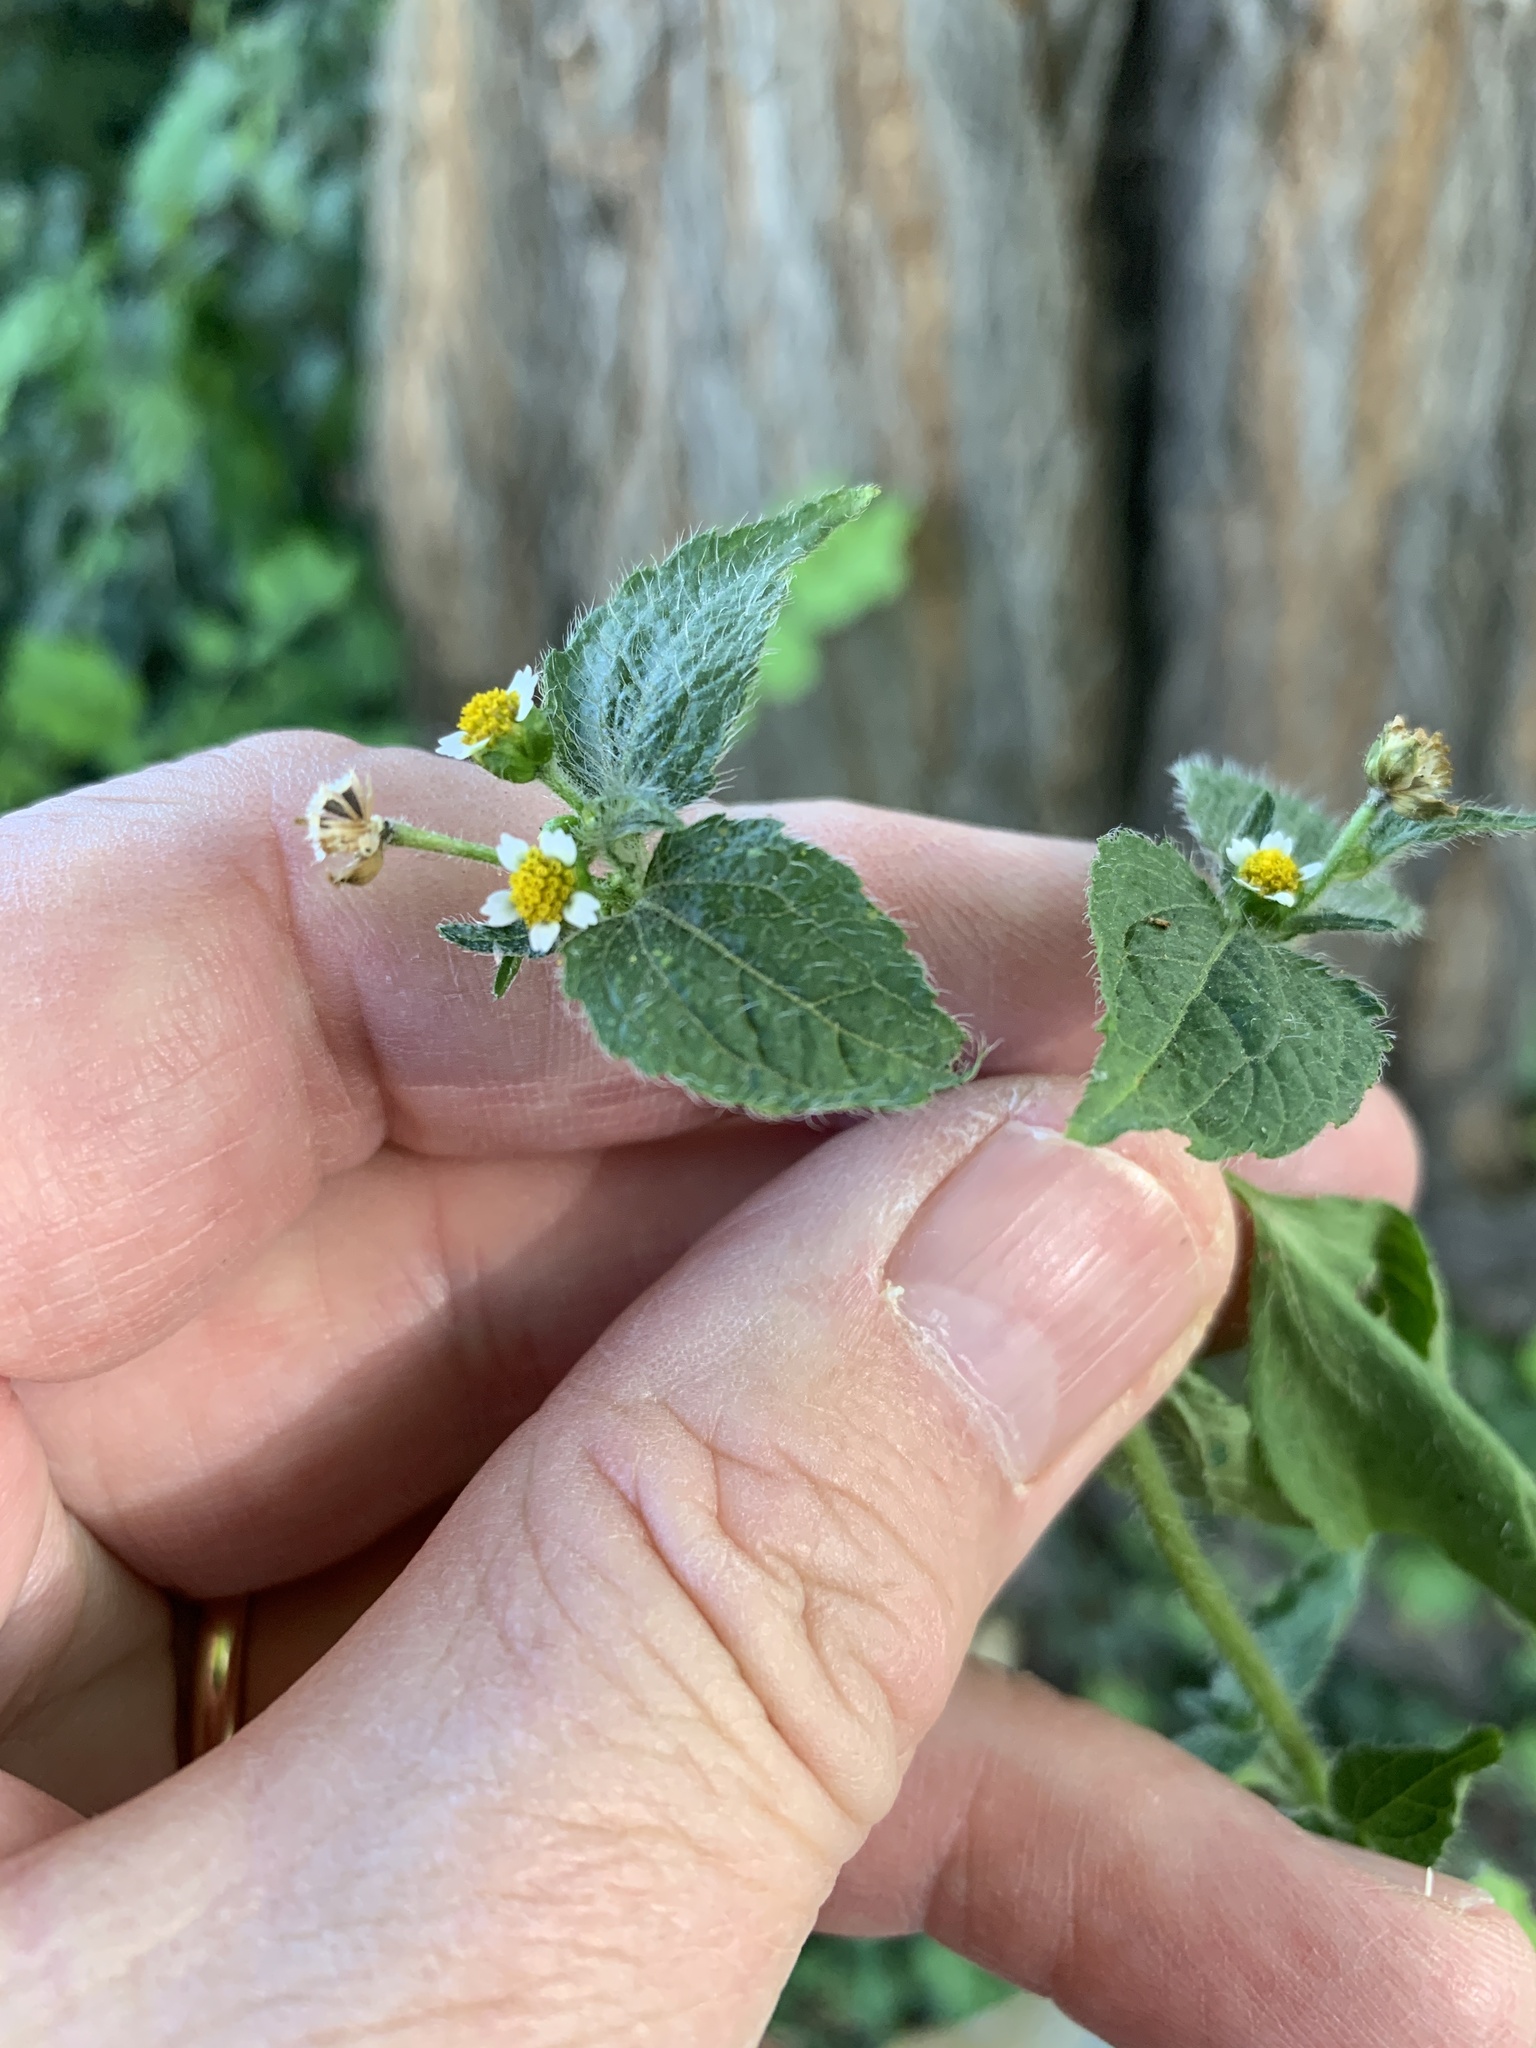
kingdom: Plantae
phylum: Tracheophyta
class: Magnoliopsida
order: Asterales
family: Asteraceae
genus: Galinsoga
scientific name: Galinsoga quadriradiata
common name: Shaggy soldier
